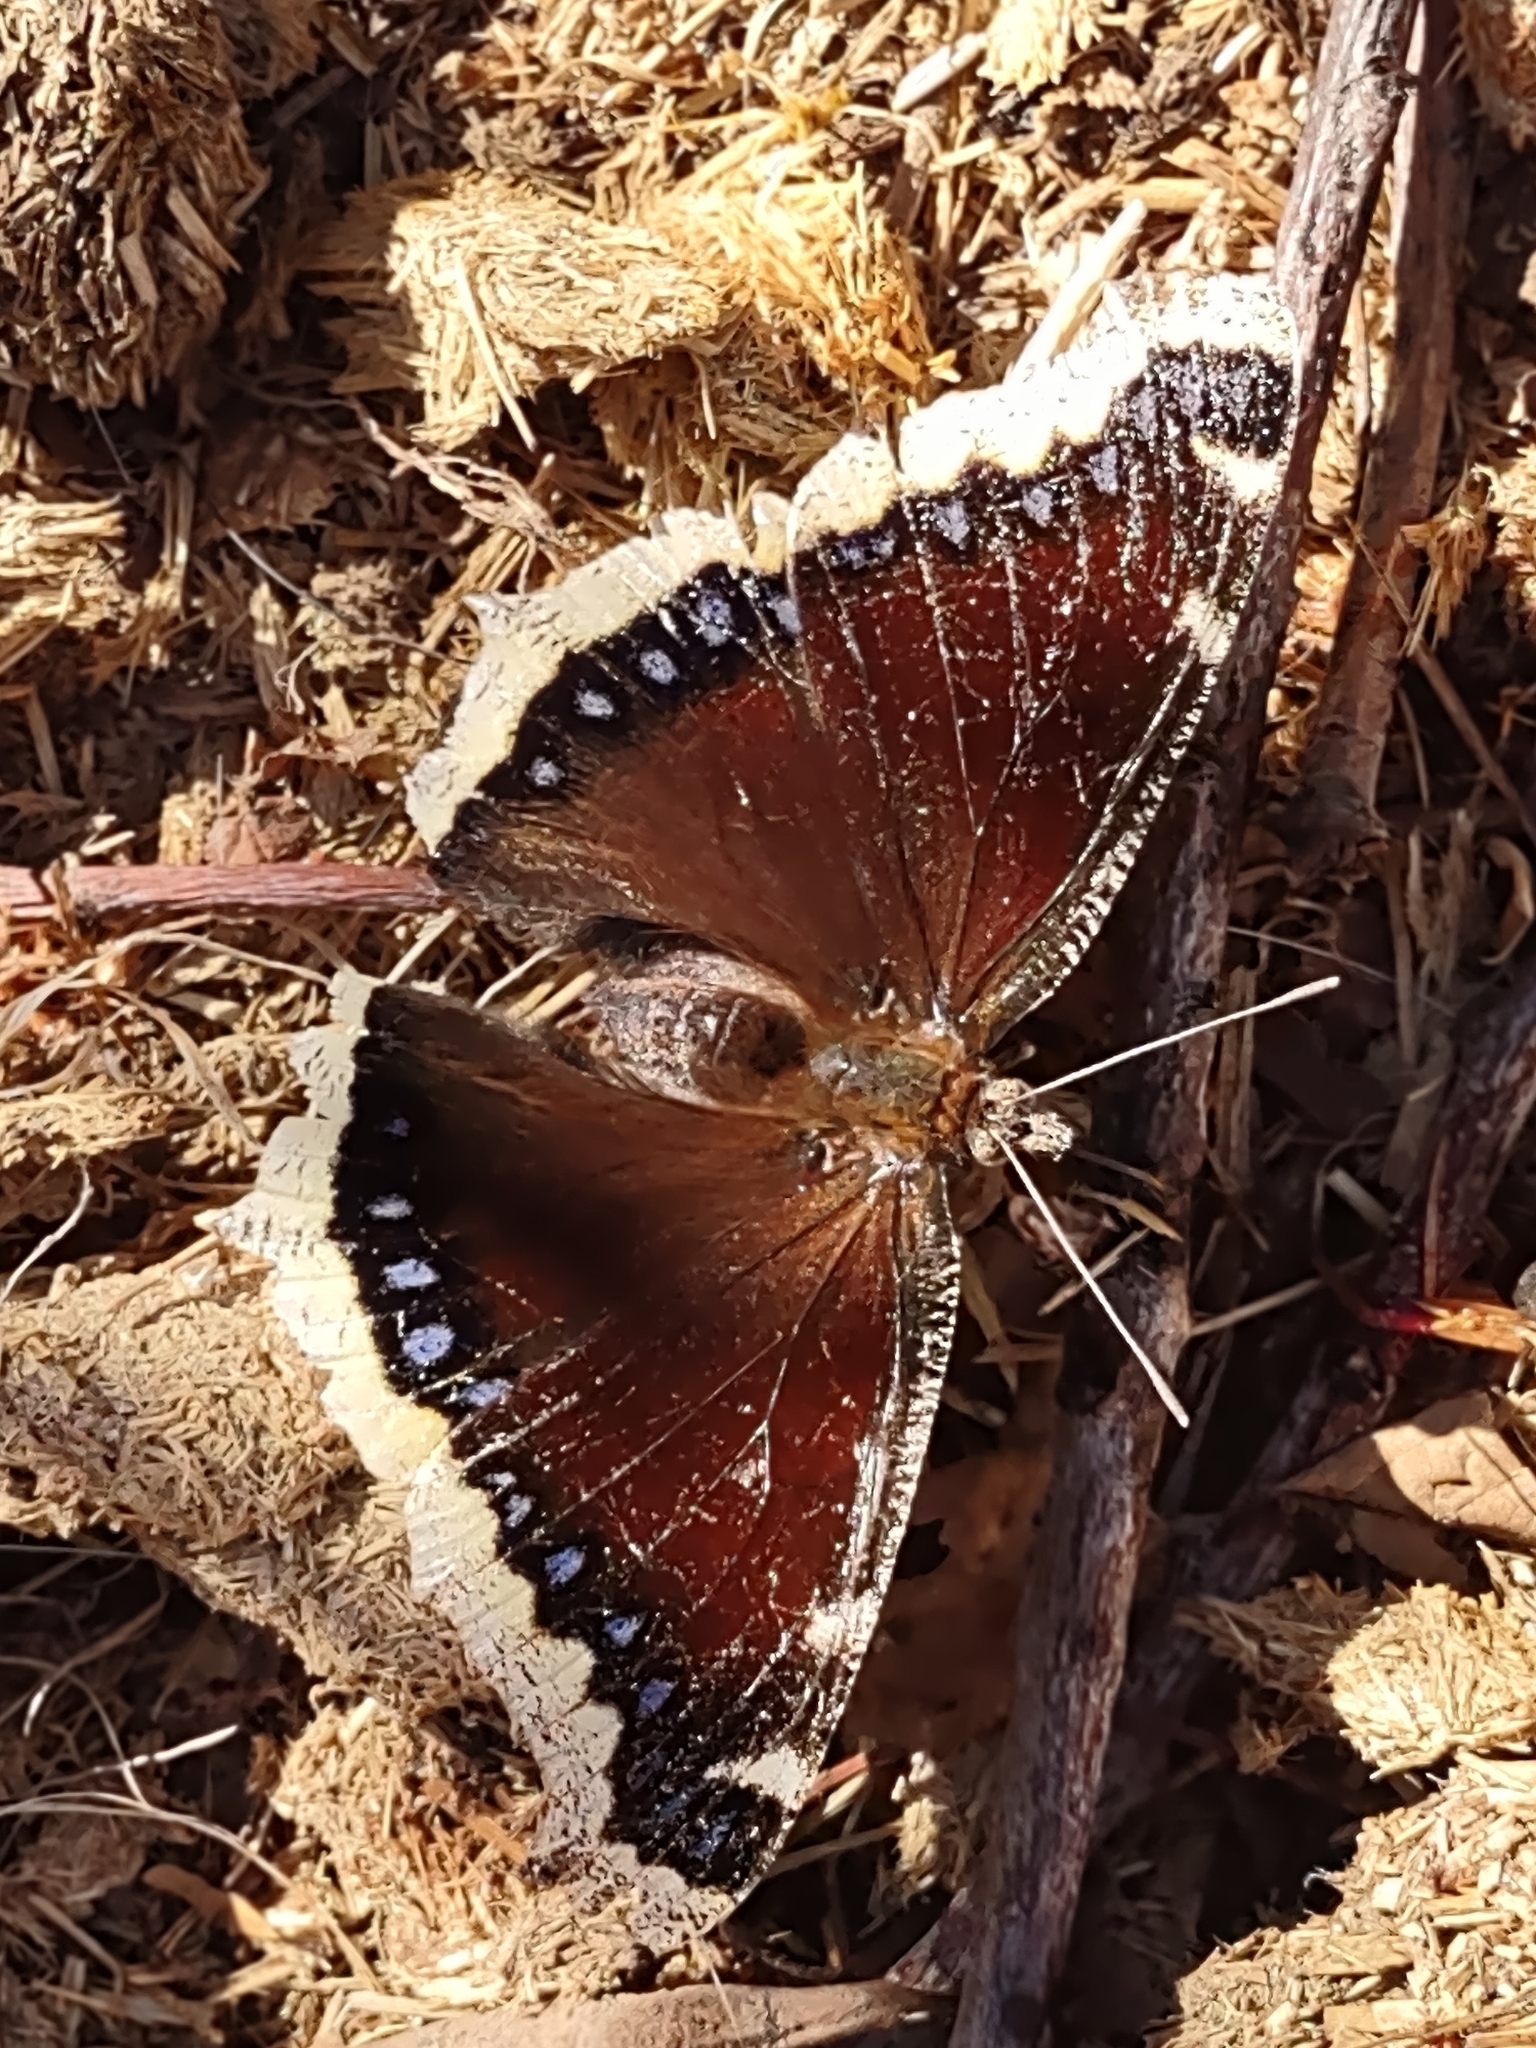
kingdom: Animalia
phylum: Arthropoda
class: Insecta
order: Lepidoptera
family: Nymphalidae
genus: Nymphalis
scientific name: Nymphalis antiopa
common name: Camberwell beauty
